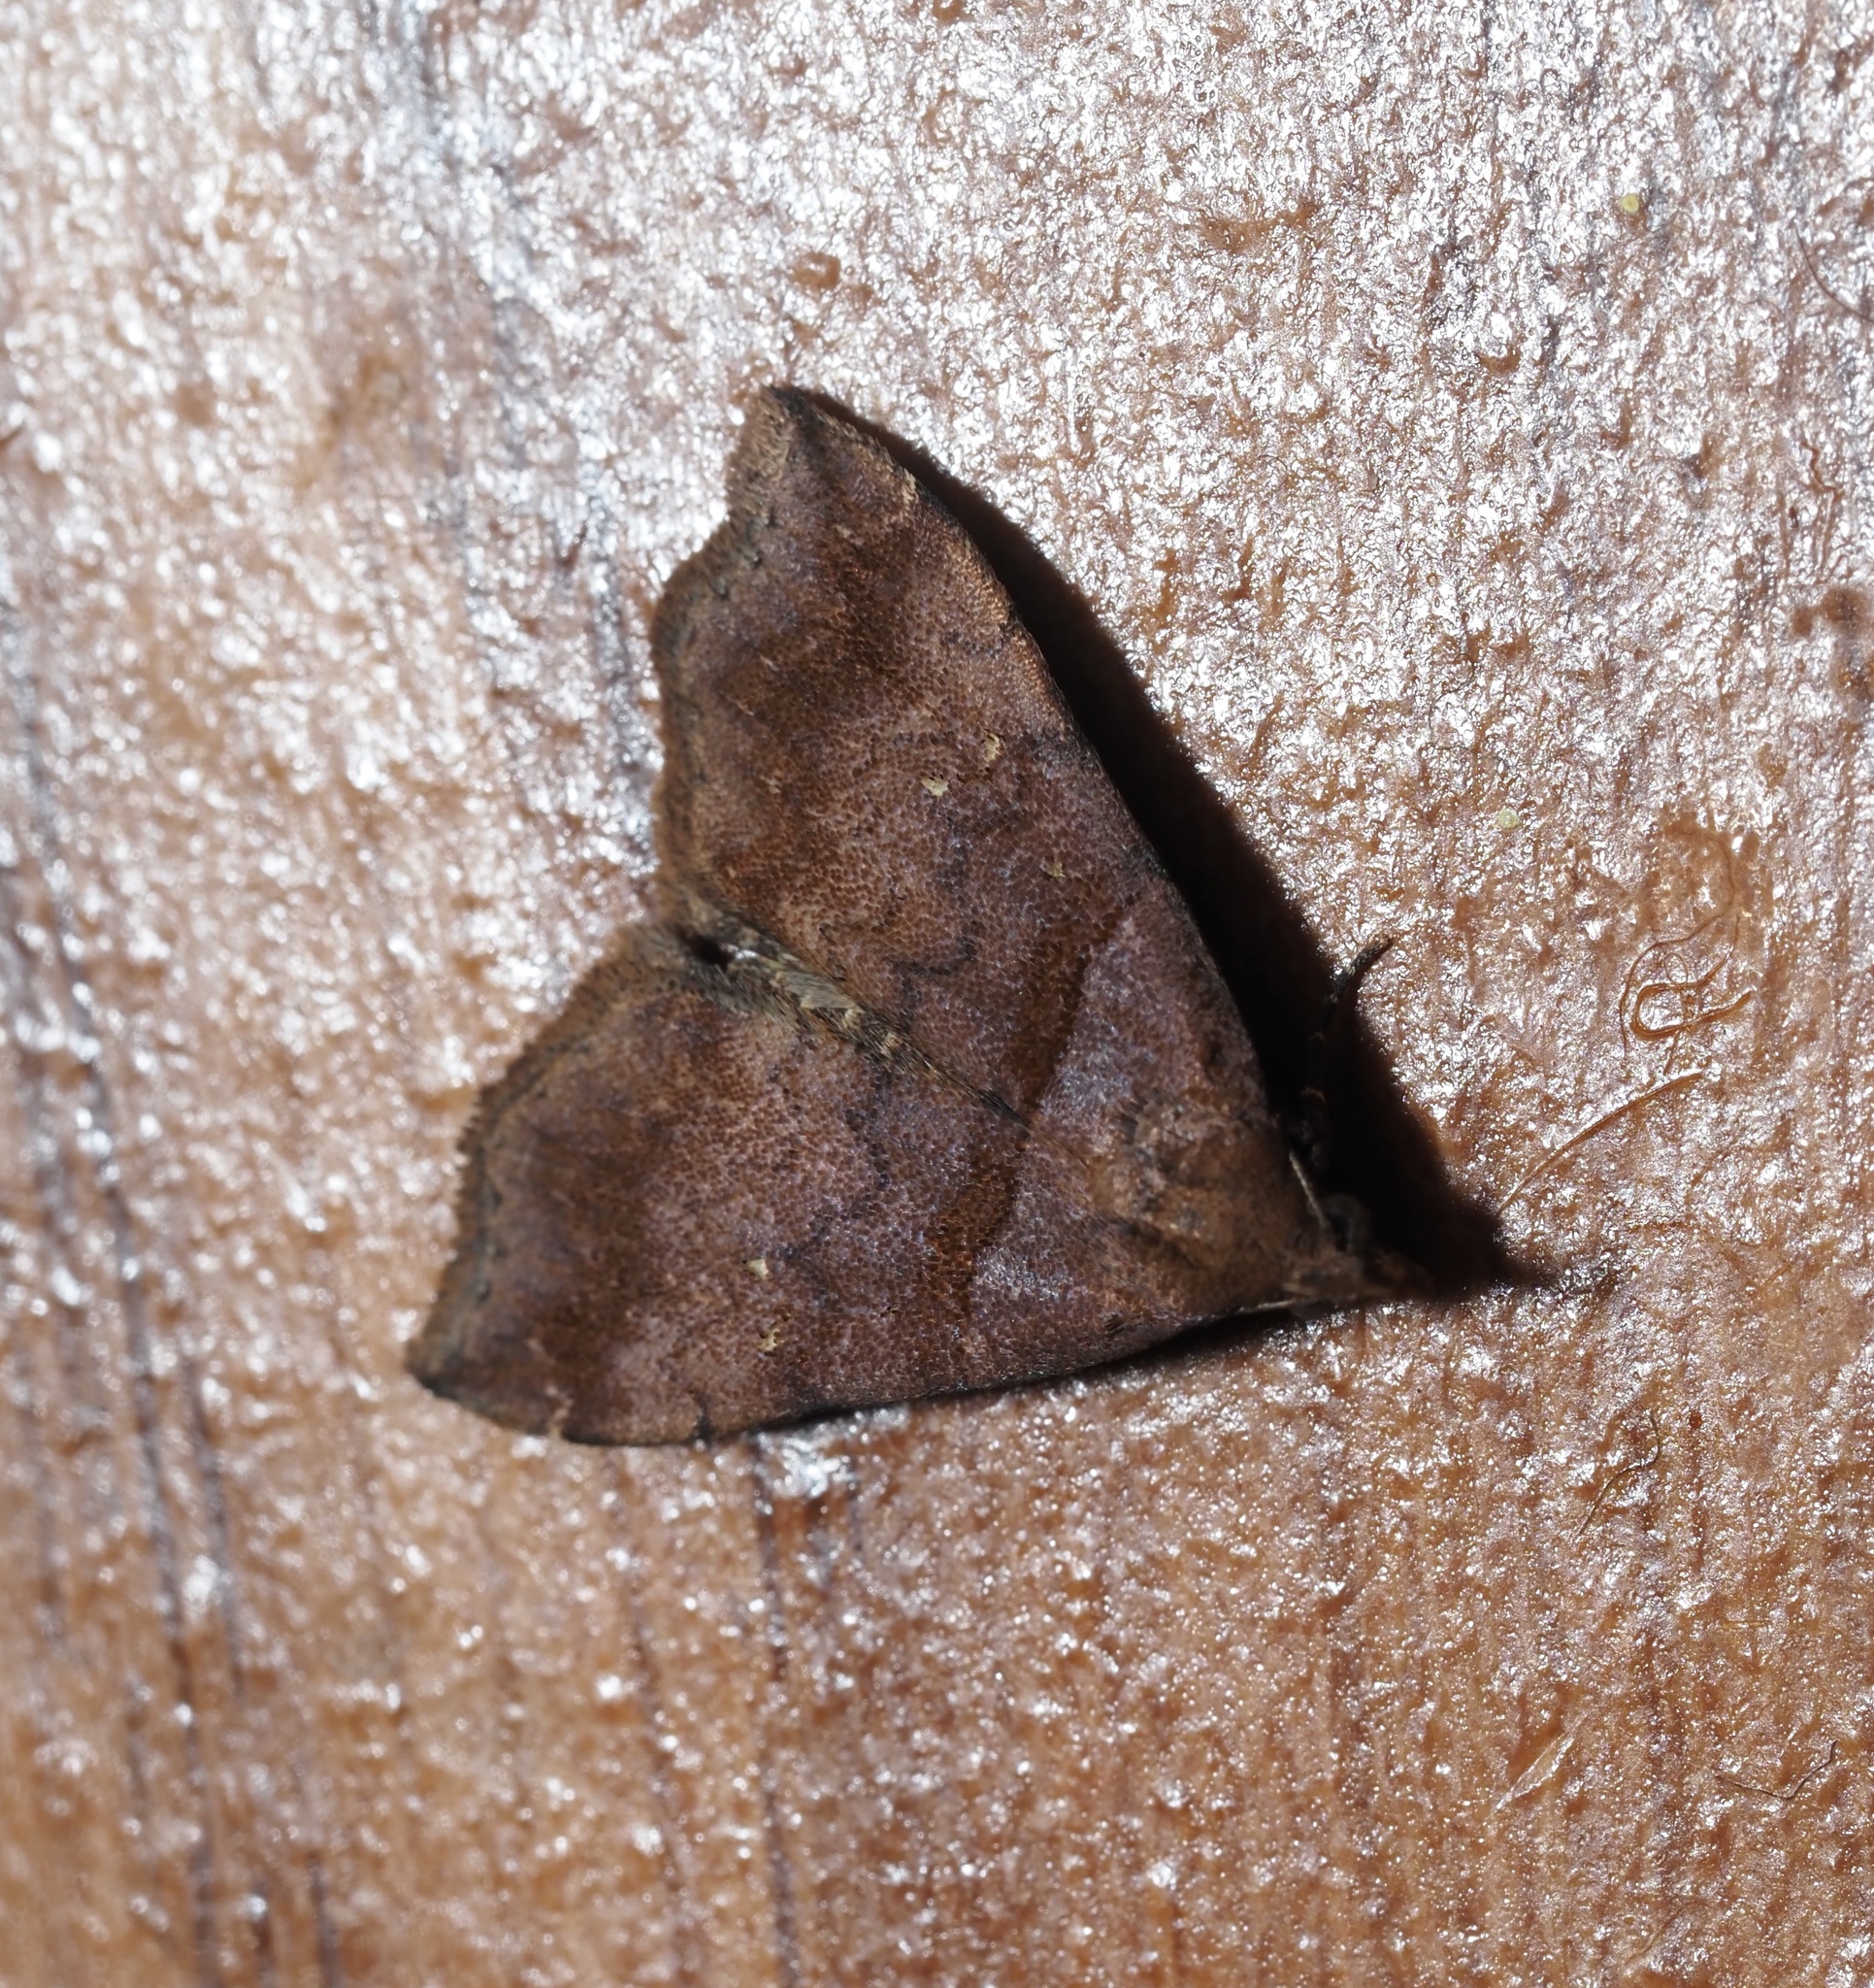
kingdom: Animalia
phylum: Arthropoda
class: Insecta
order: Lepidoptera
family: Erebidae
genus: Lascoria
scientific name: Lascoria ambigualis
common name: Ambiguous moth
